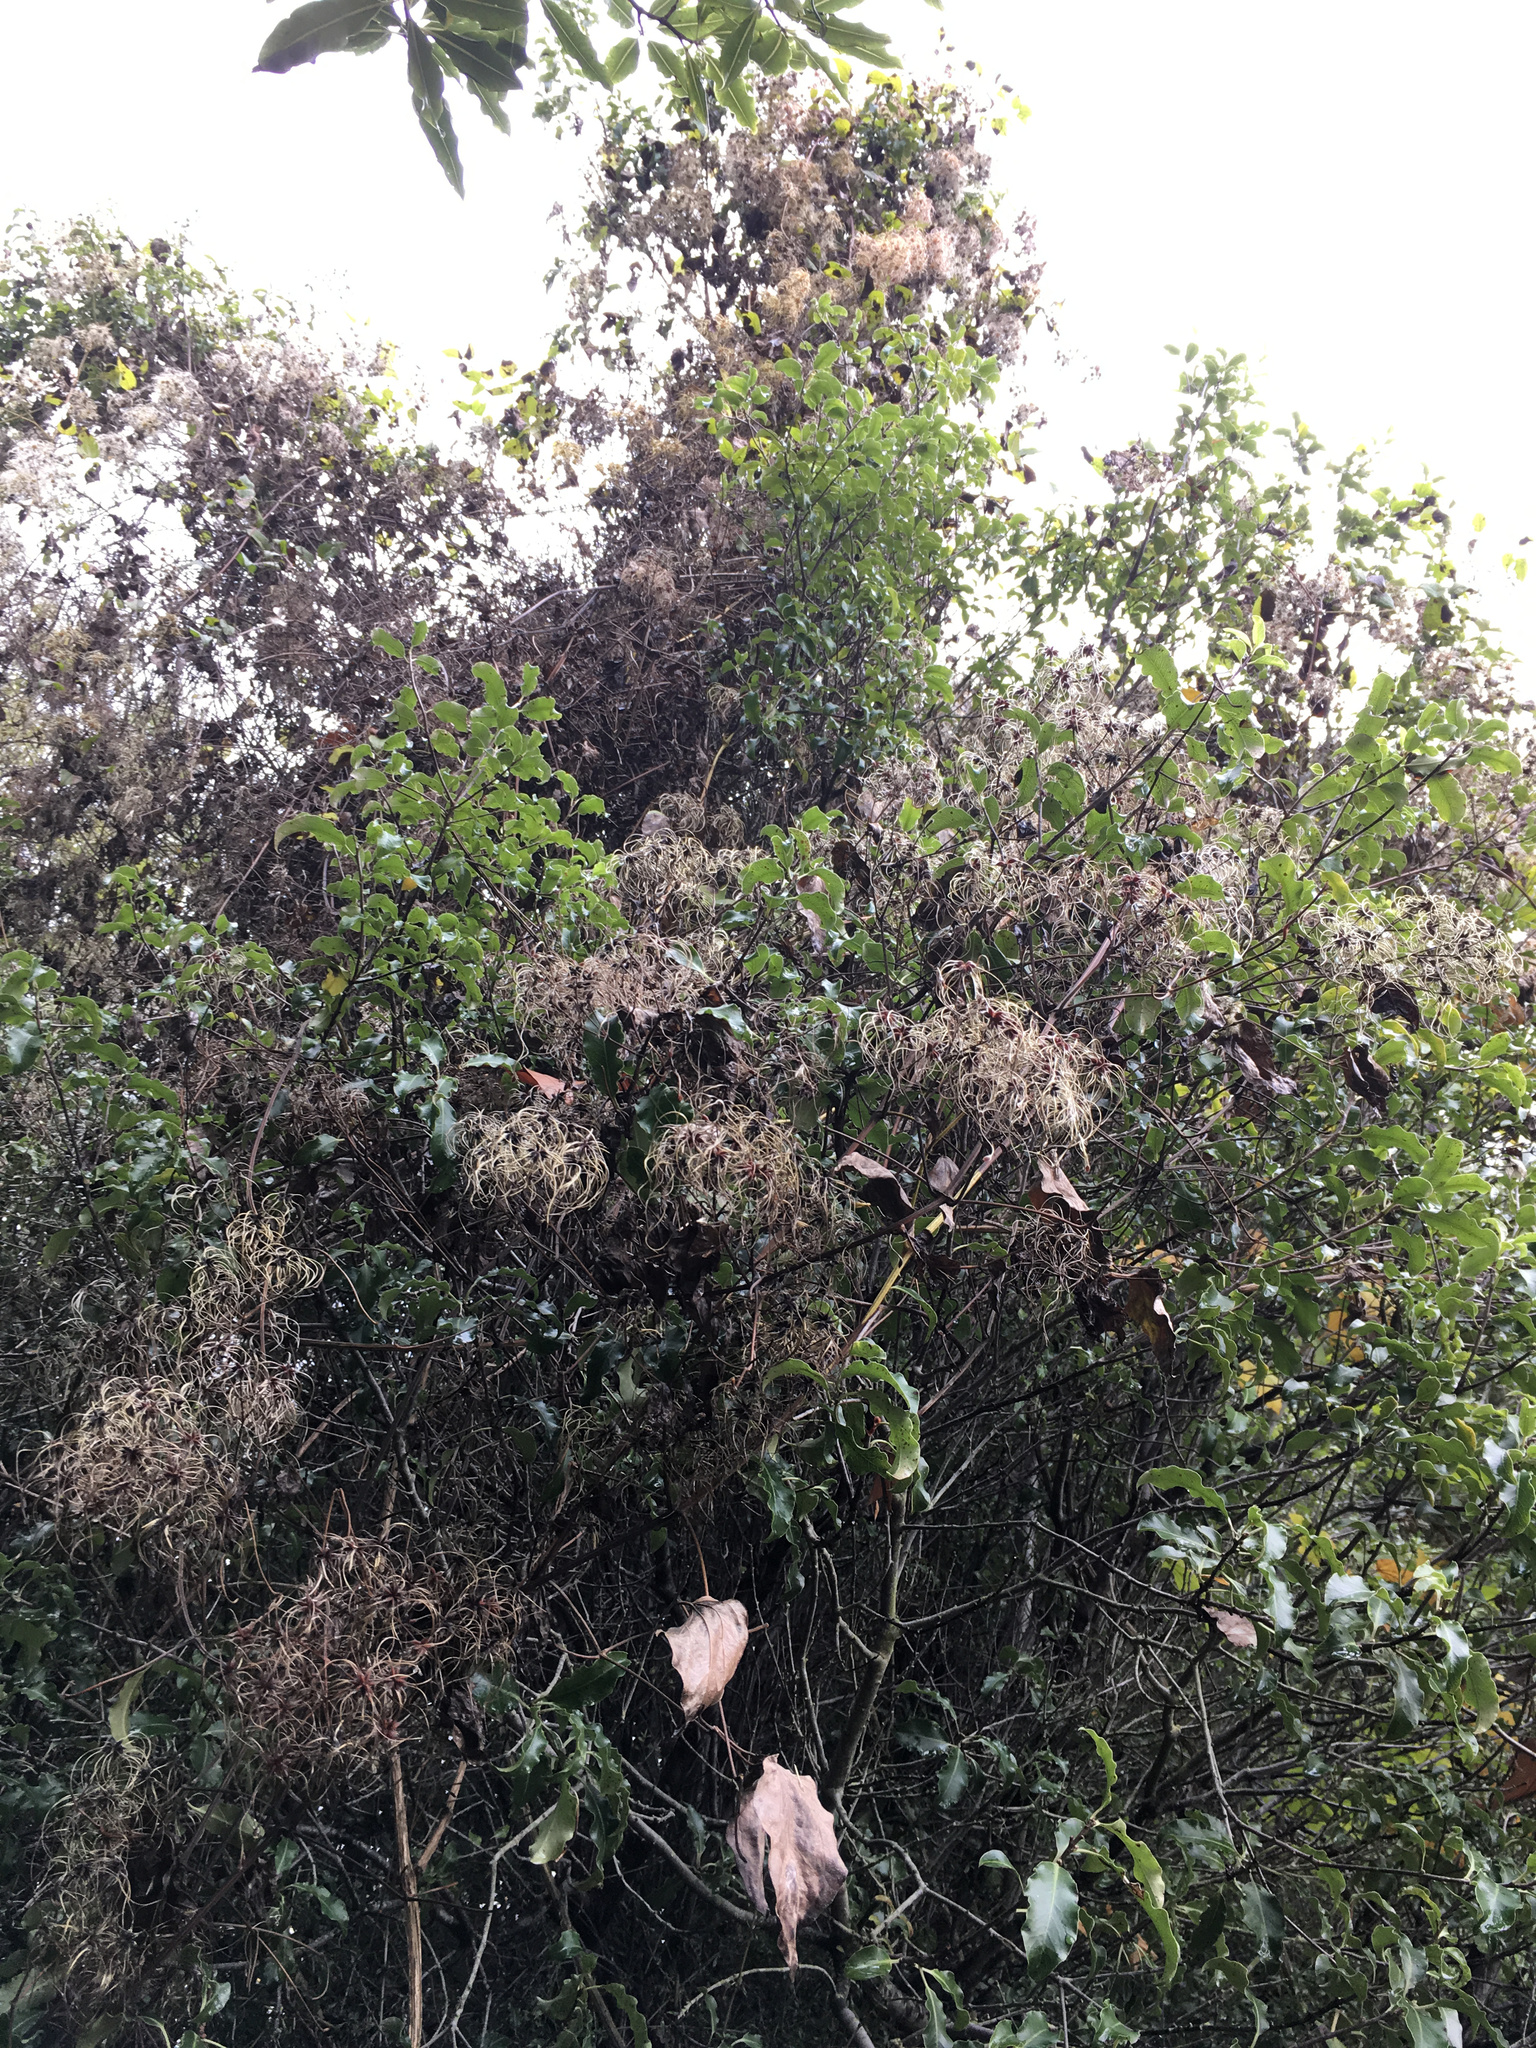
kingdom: Plantae
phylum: Tracheophyta
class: Magnoliopsida
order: Ranunculales
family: Ranunculaceae
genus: Clematis
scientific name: Clematis vitalba
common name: Evergreen clematis
